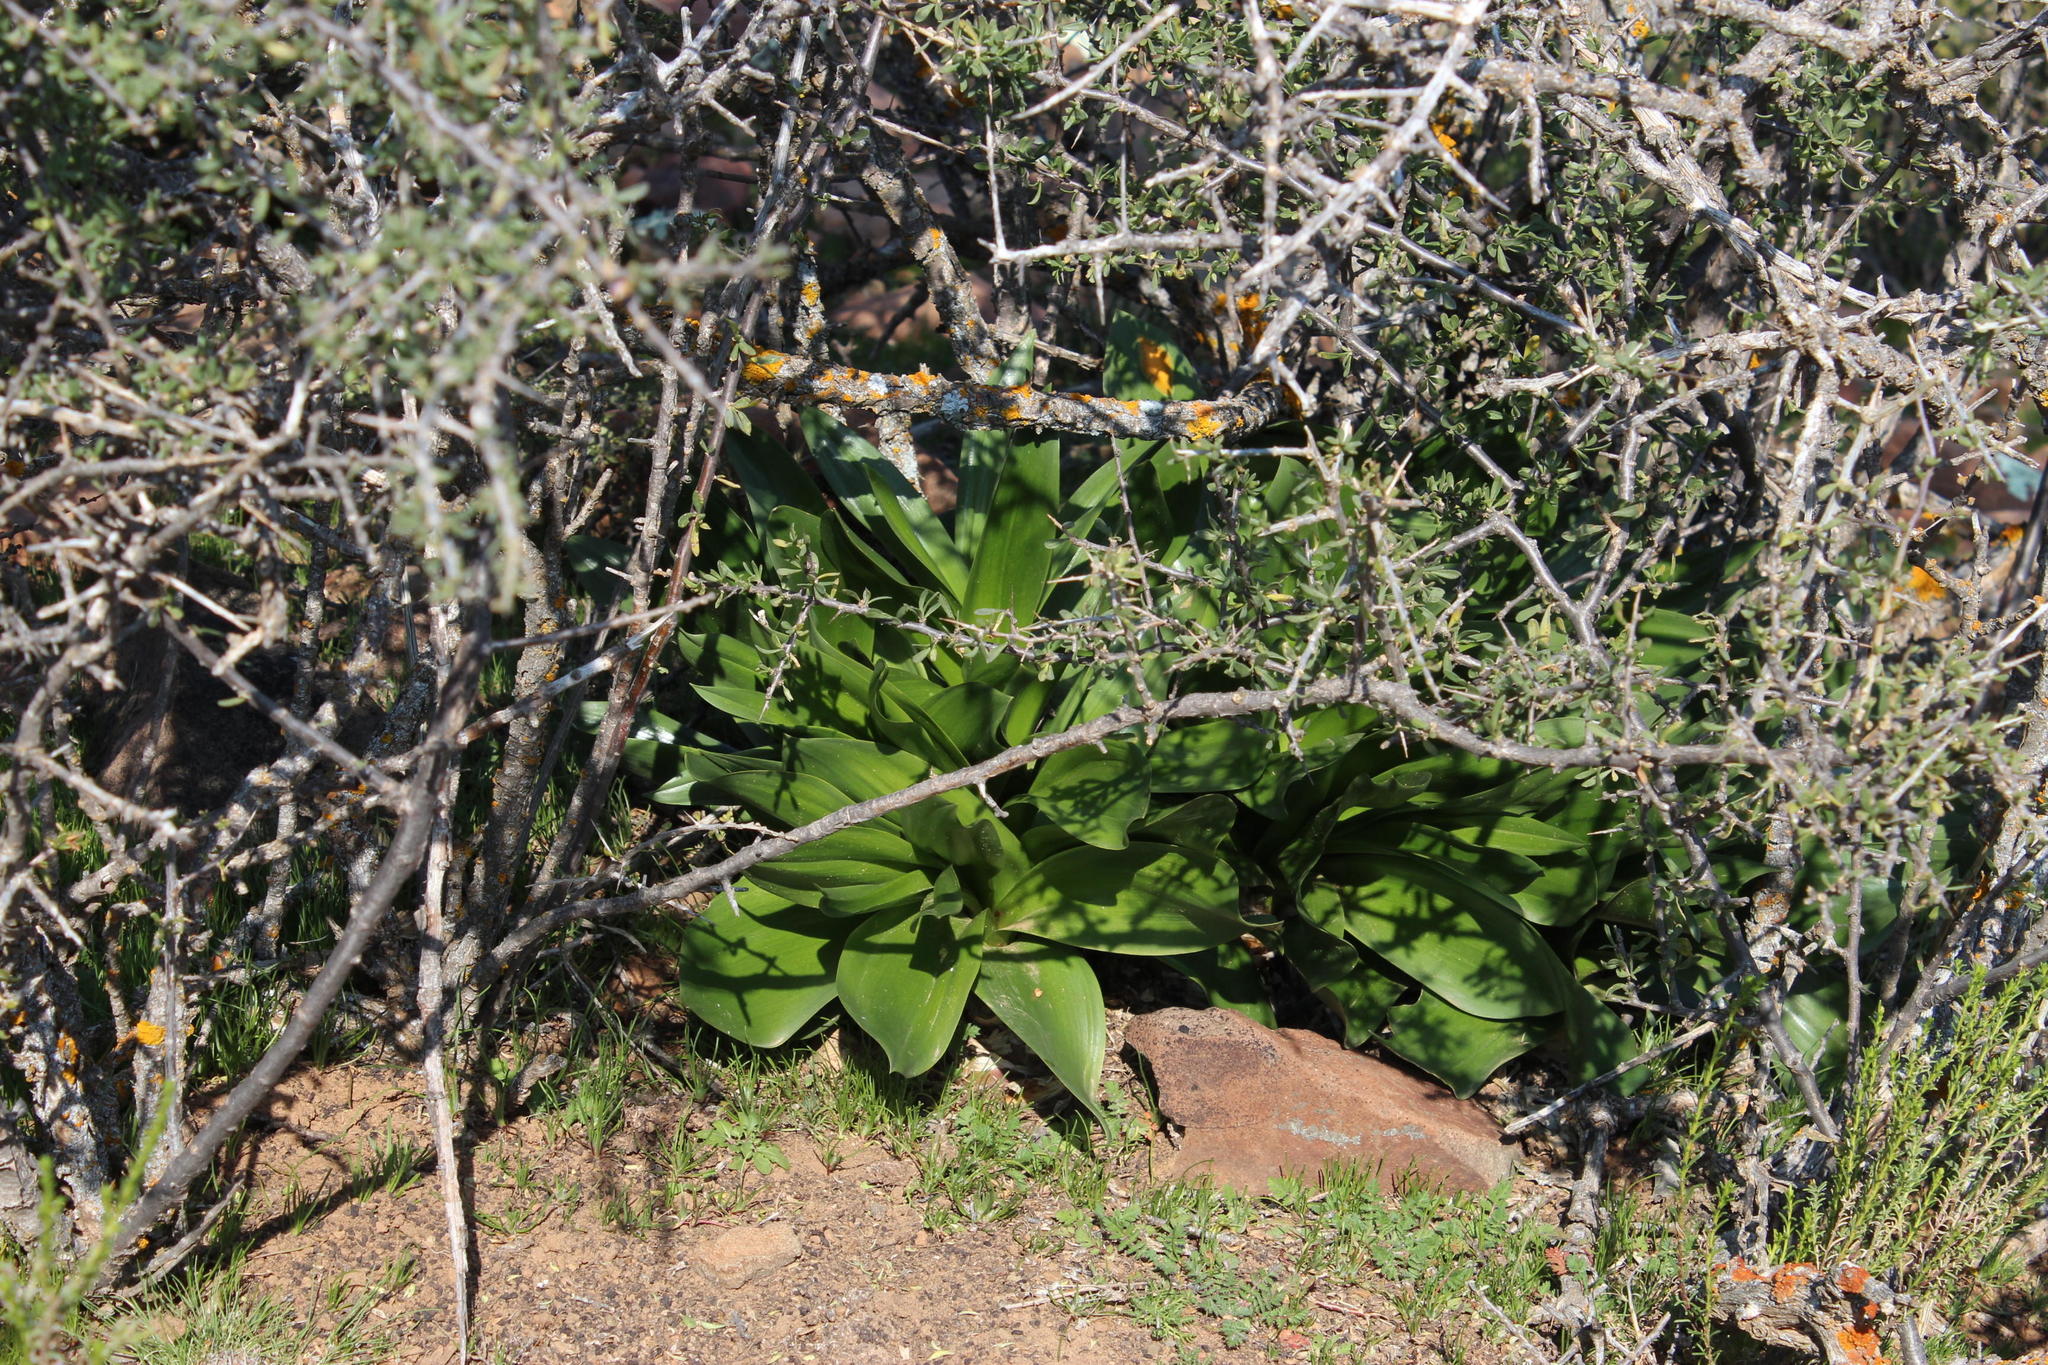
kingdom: Plantae
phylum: Tracheophyta
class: Liliopsida
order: Asparagales
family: Asparagaceae
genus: Fusifilum
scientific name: Fusifilum physodes
